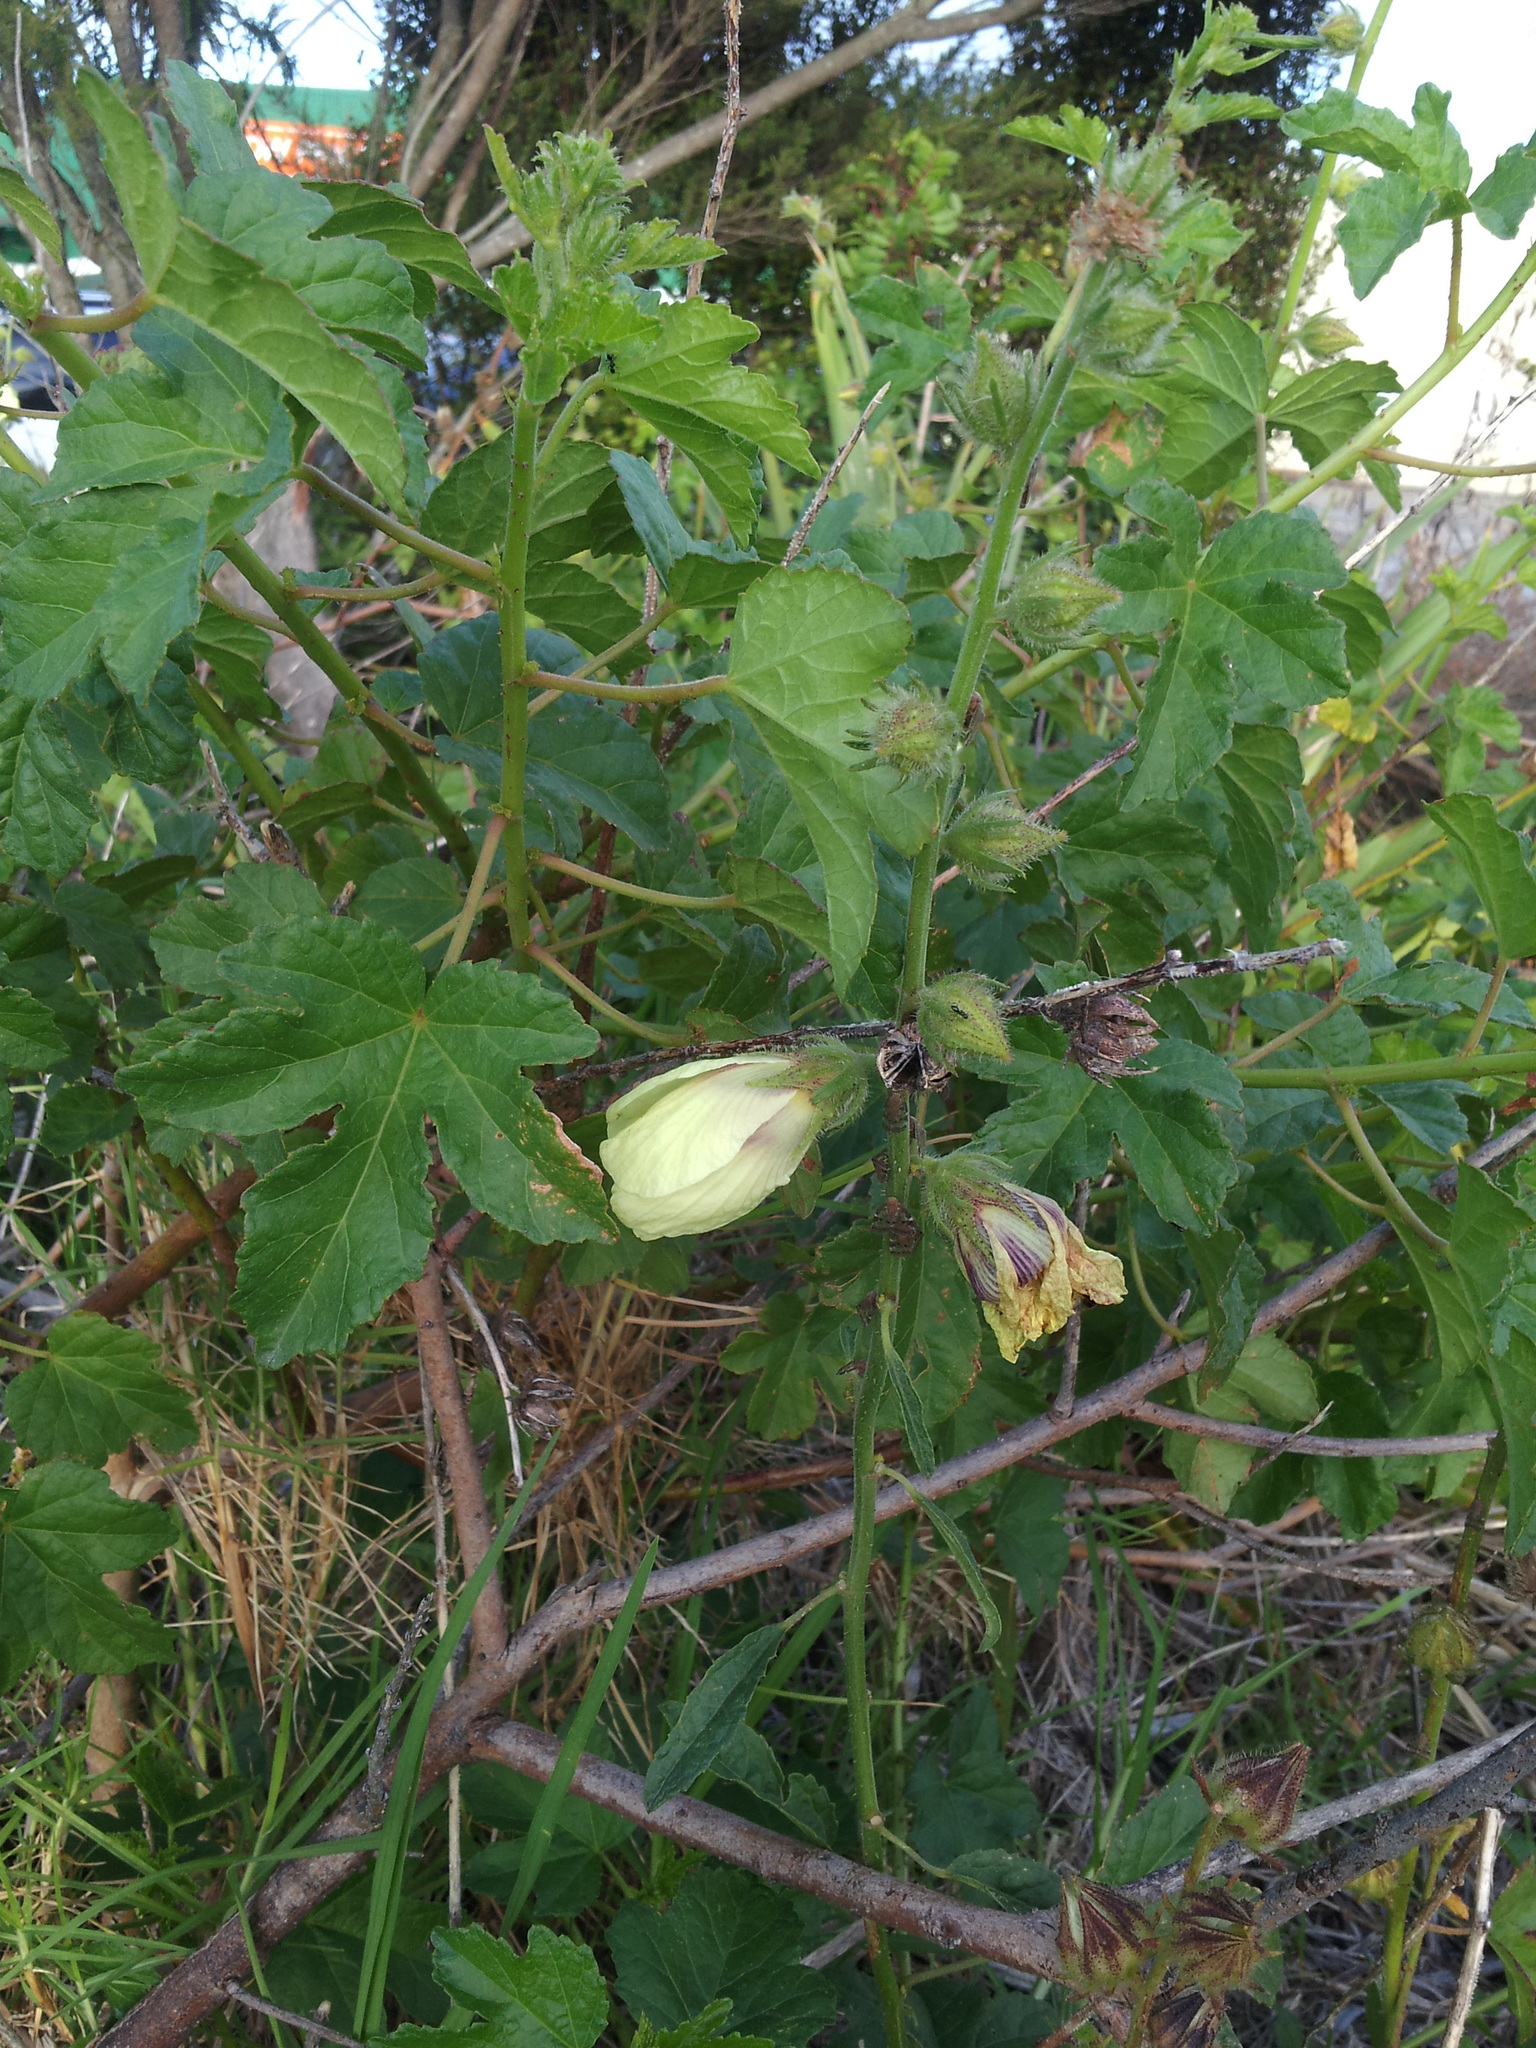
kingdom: Plantae
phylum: Tracheophyta
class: Magnoliopsida
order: Malvales
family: Malvaceae
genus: Hibiscus
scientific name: Hibiscus diversifolius
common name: Cape hibiscus
